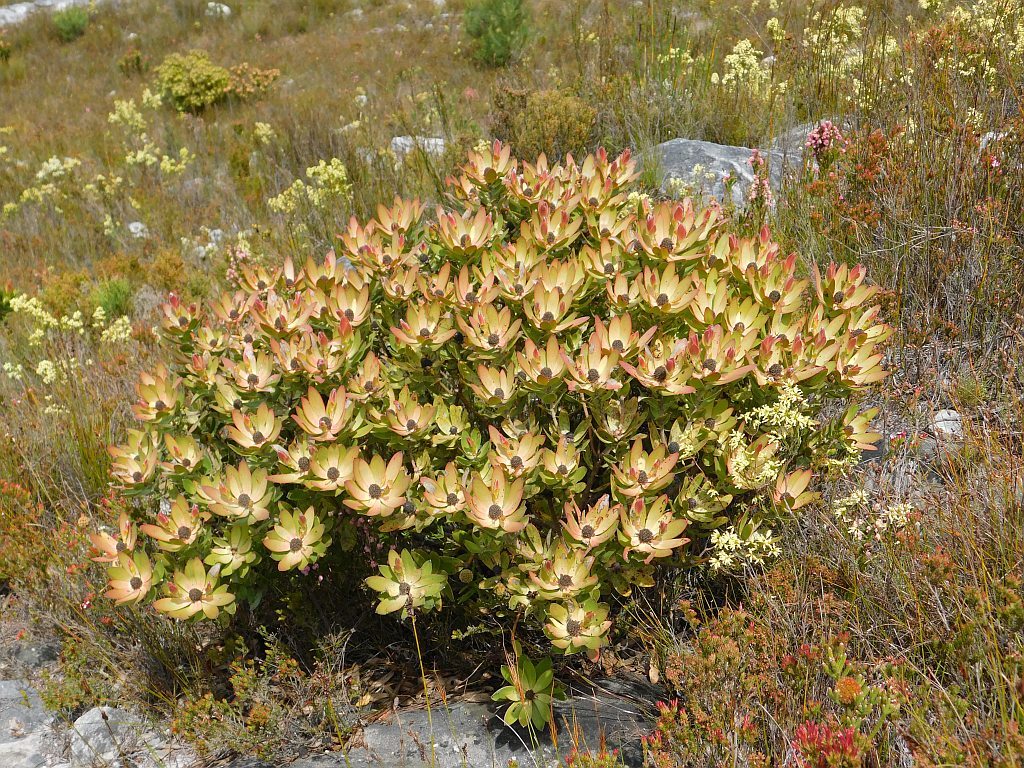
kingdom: Plantae
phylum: Tracheophyta
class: Magnoliopsida
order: Proteales
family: Proteaceae
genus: Leucadendron
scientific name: Leucadendron gandogeri
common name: Broad-leaf conebush
